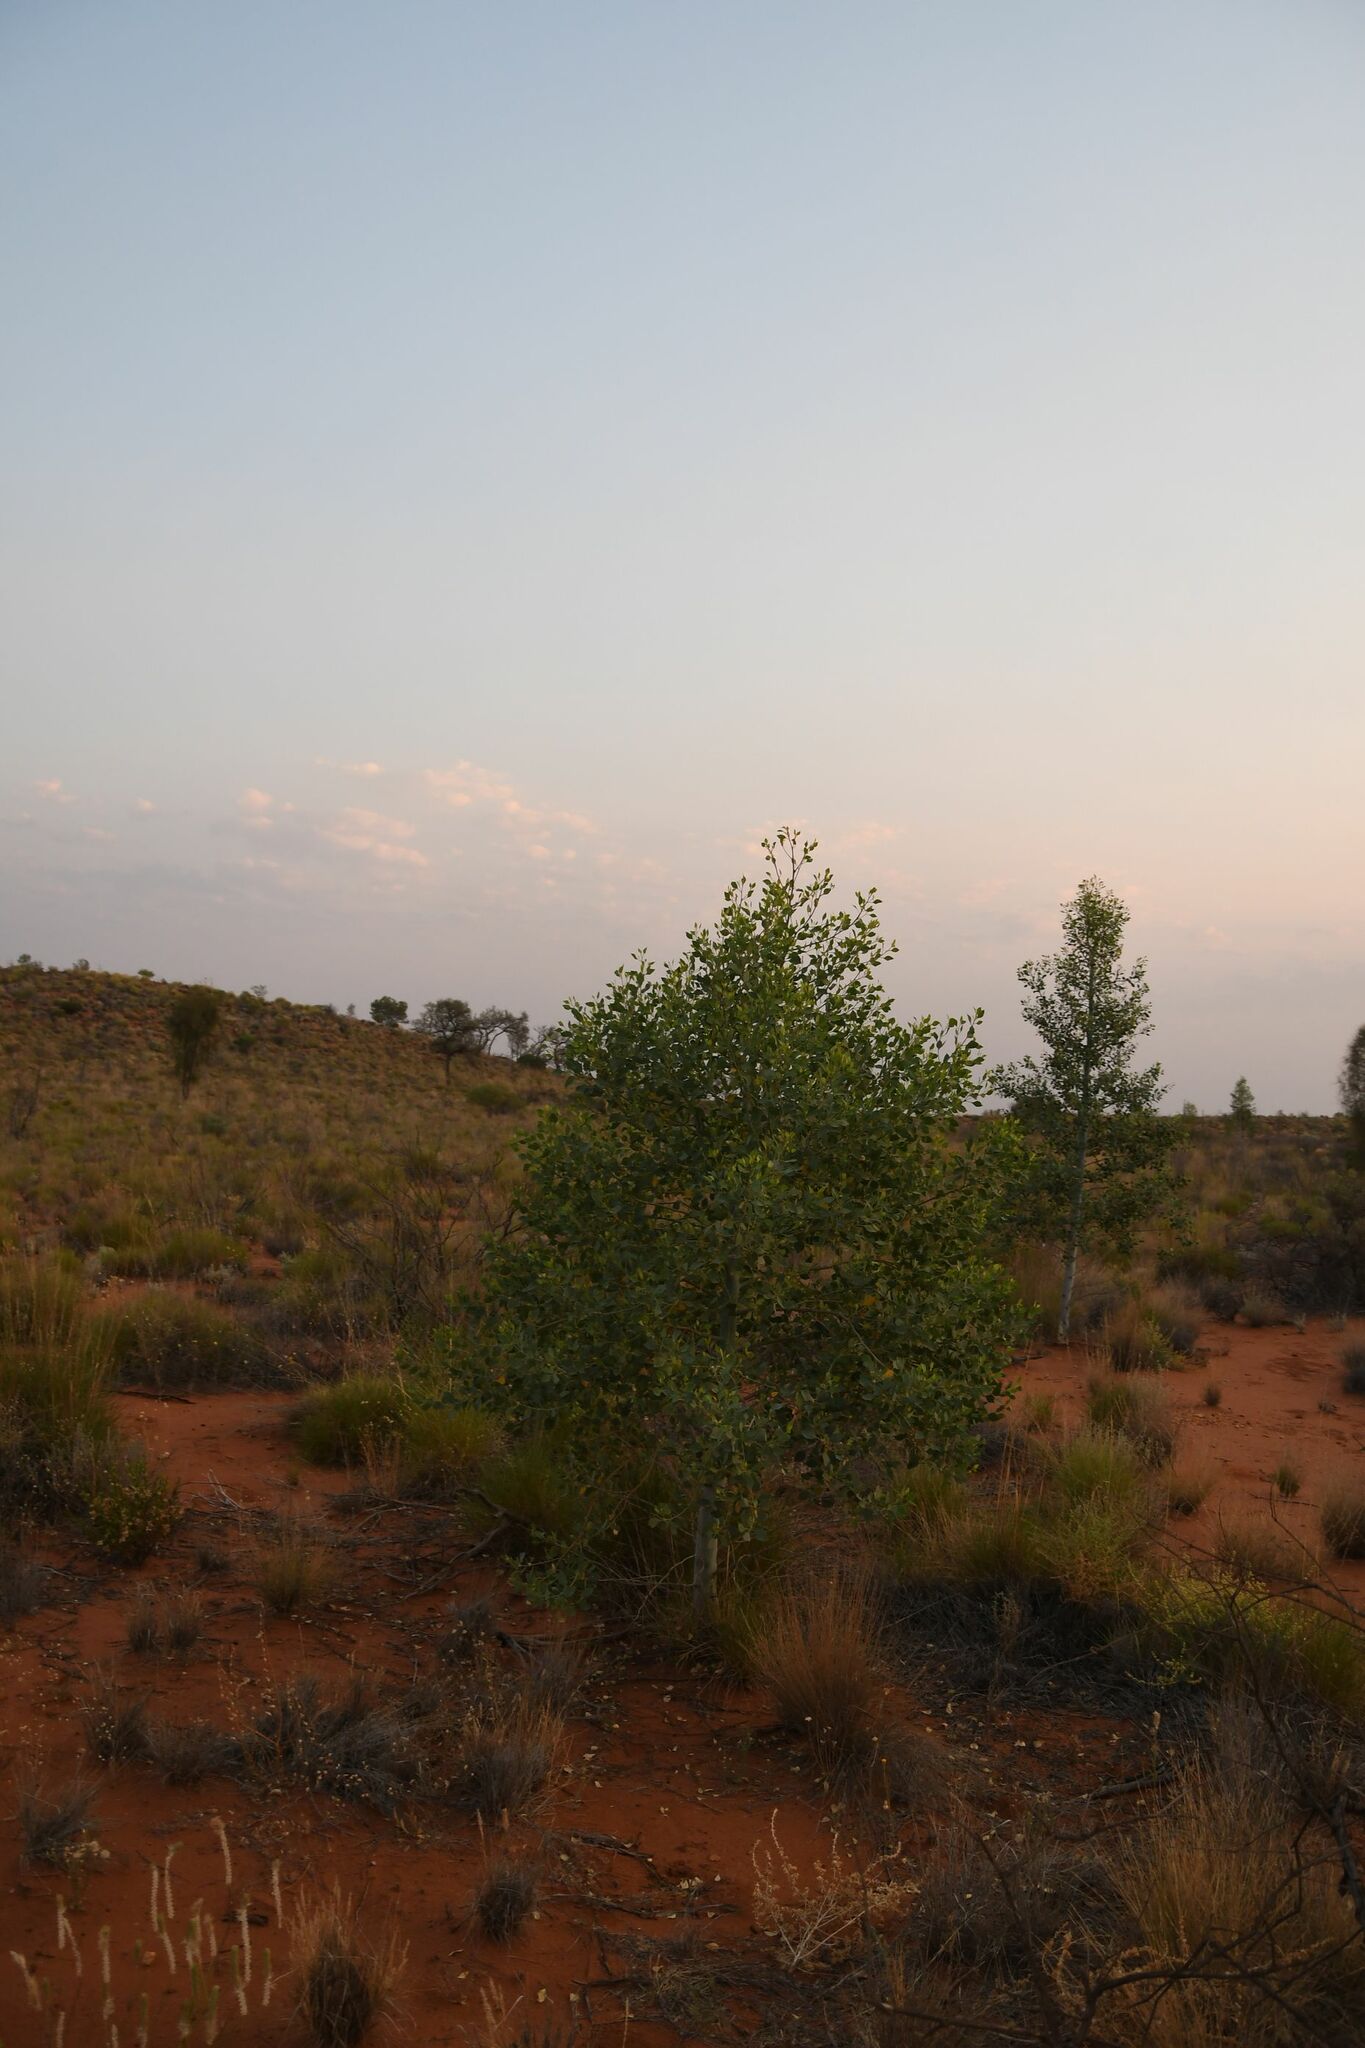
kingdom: Plantae
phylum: Tracheophyta
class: Magnoliopsida
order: Brassicales
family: Gyrostemonaceae
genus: Codonocarpus
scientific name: Codonocarpus cotinifolius
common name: Mustardtree
